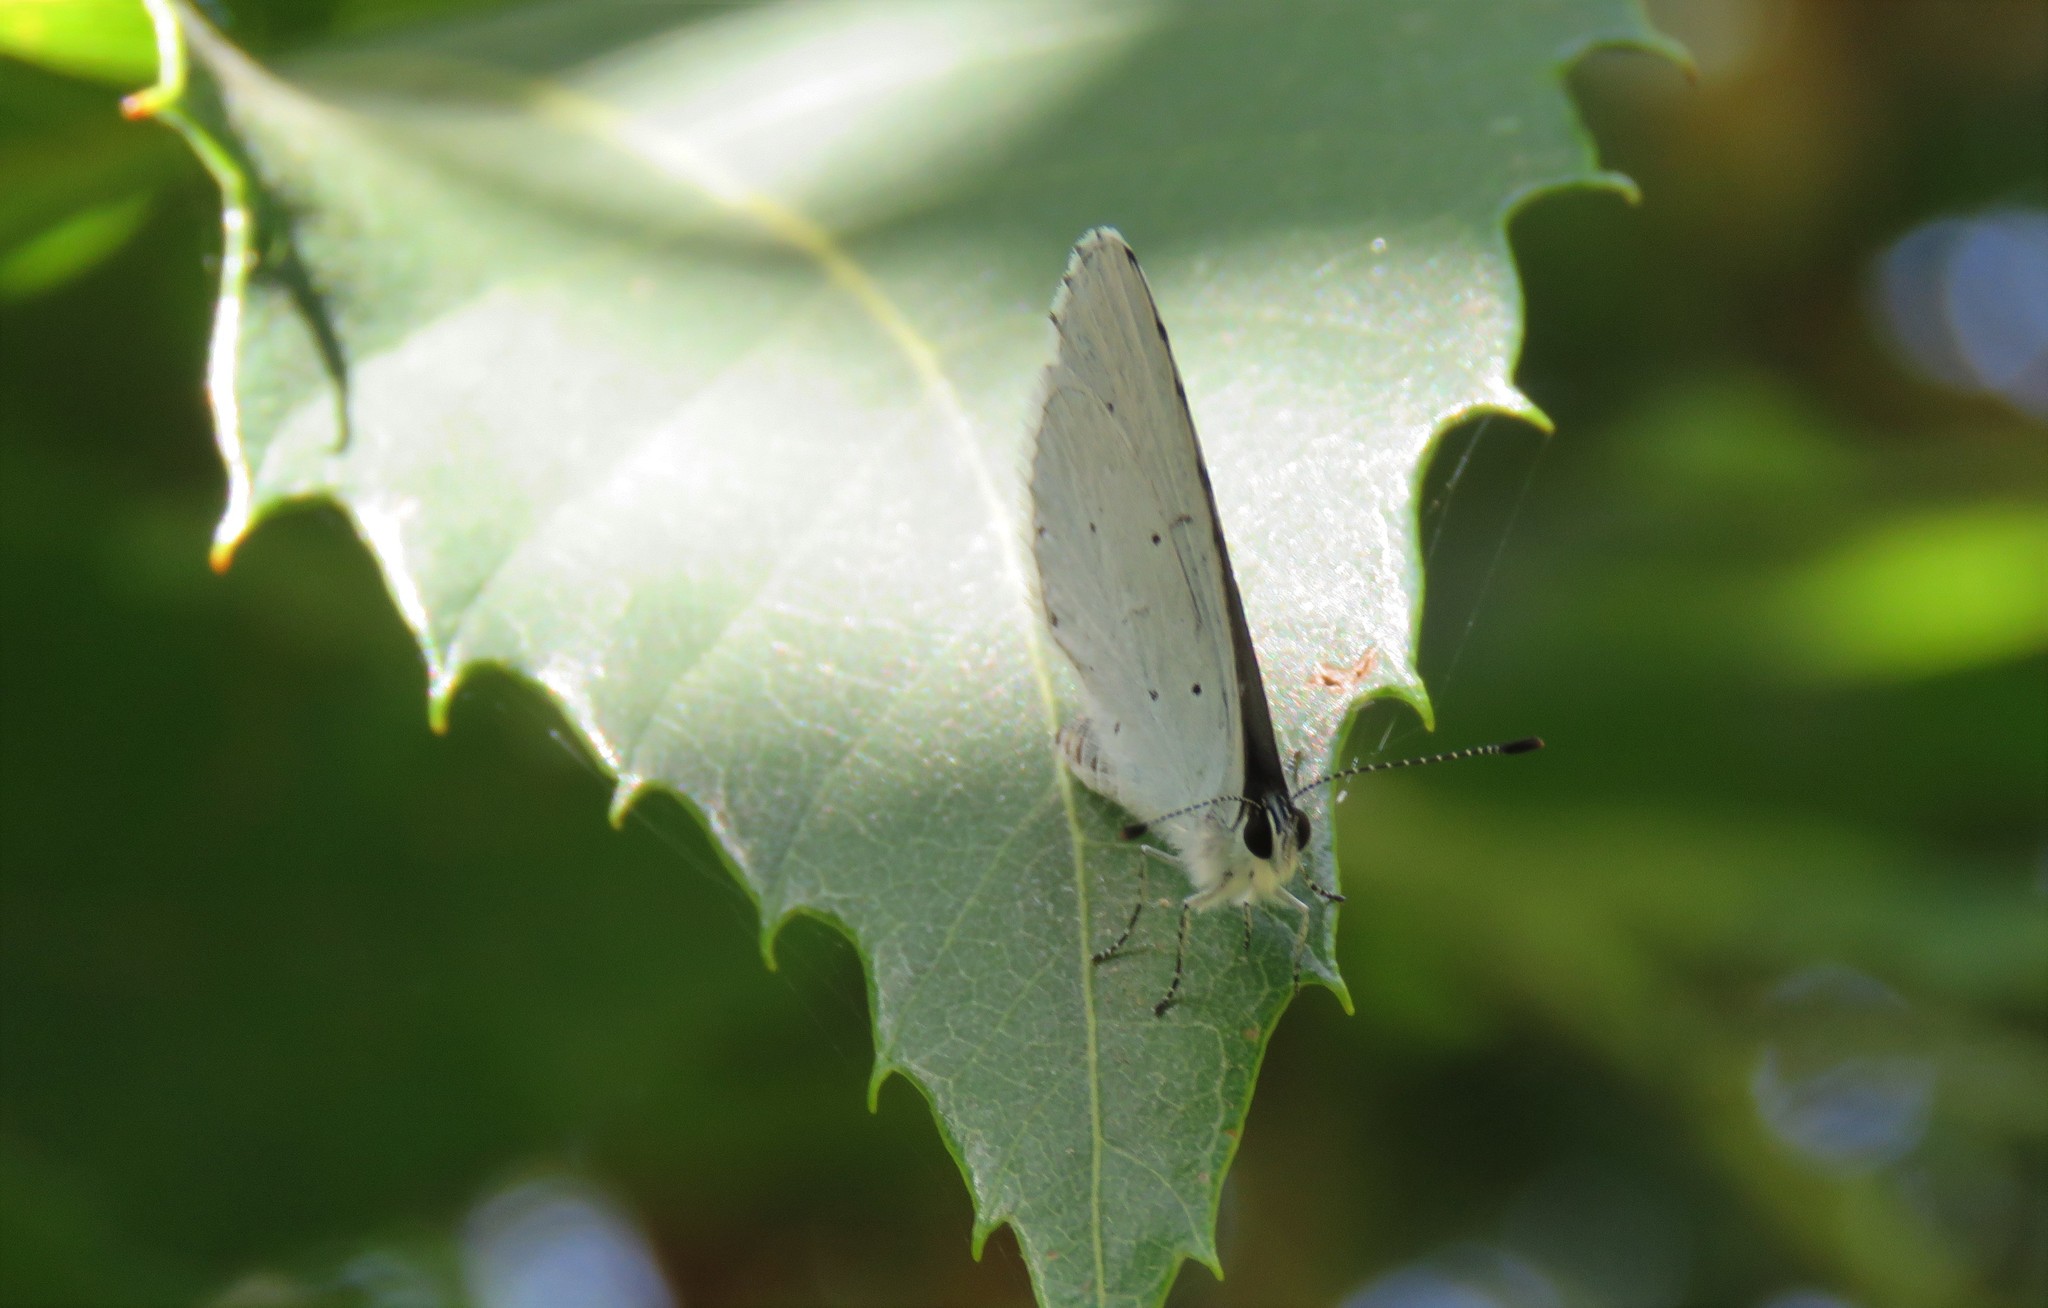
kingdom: Animalia
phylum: Arthropoda
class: Insecta
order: Lepidoptera
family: Lycaenidae
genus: Celastrina
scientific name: Celastrina argiolus
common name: Holly blue
